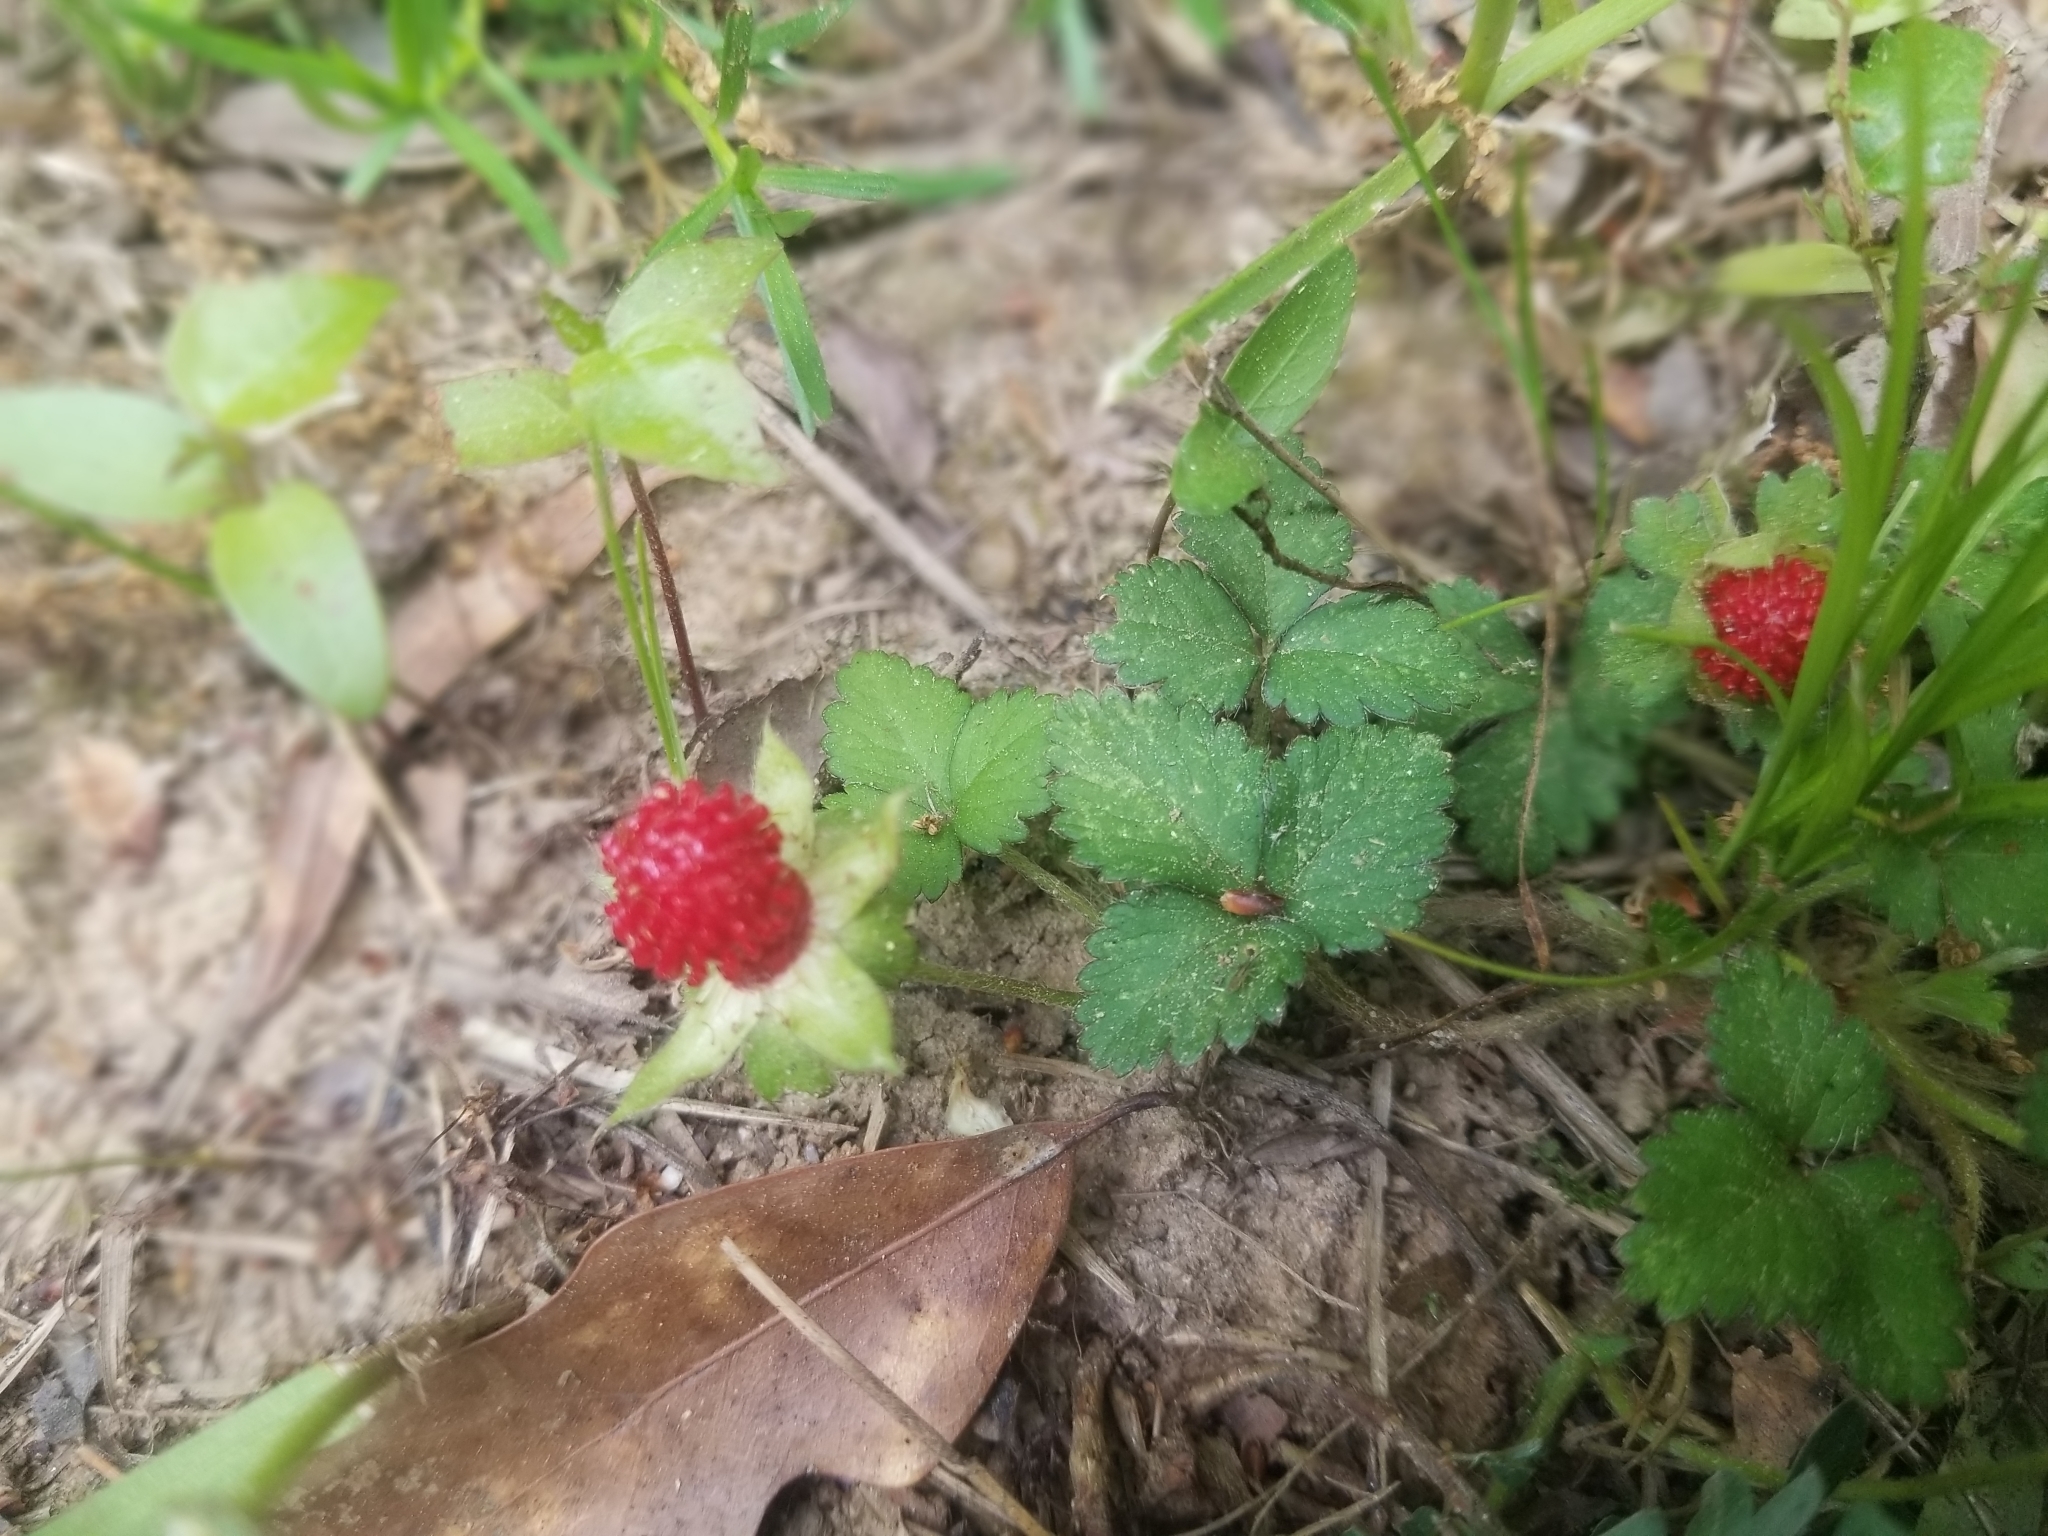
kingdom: Plantae
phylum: Tracheophyta
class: Magnoliopsida
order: Rosales
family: Rosaceae
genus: Potentilla
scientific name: Potentilla indica
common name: Yellow-flowered strawberry
